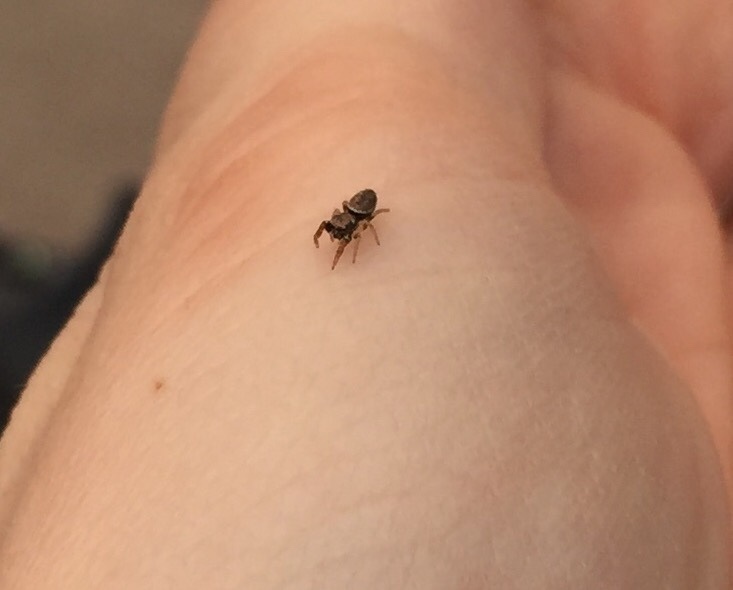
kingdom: Animalia
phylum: Arthropoda
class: Arachnida
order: Araneae
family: Salticidae
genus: Sassacus
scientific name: Sassacus vitis
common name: Jumping spiders
